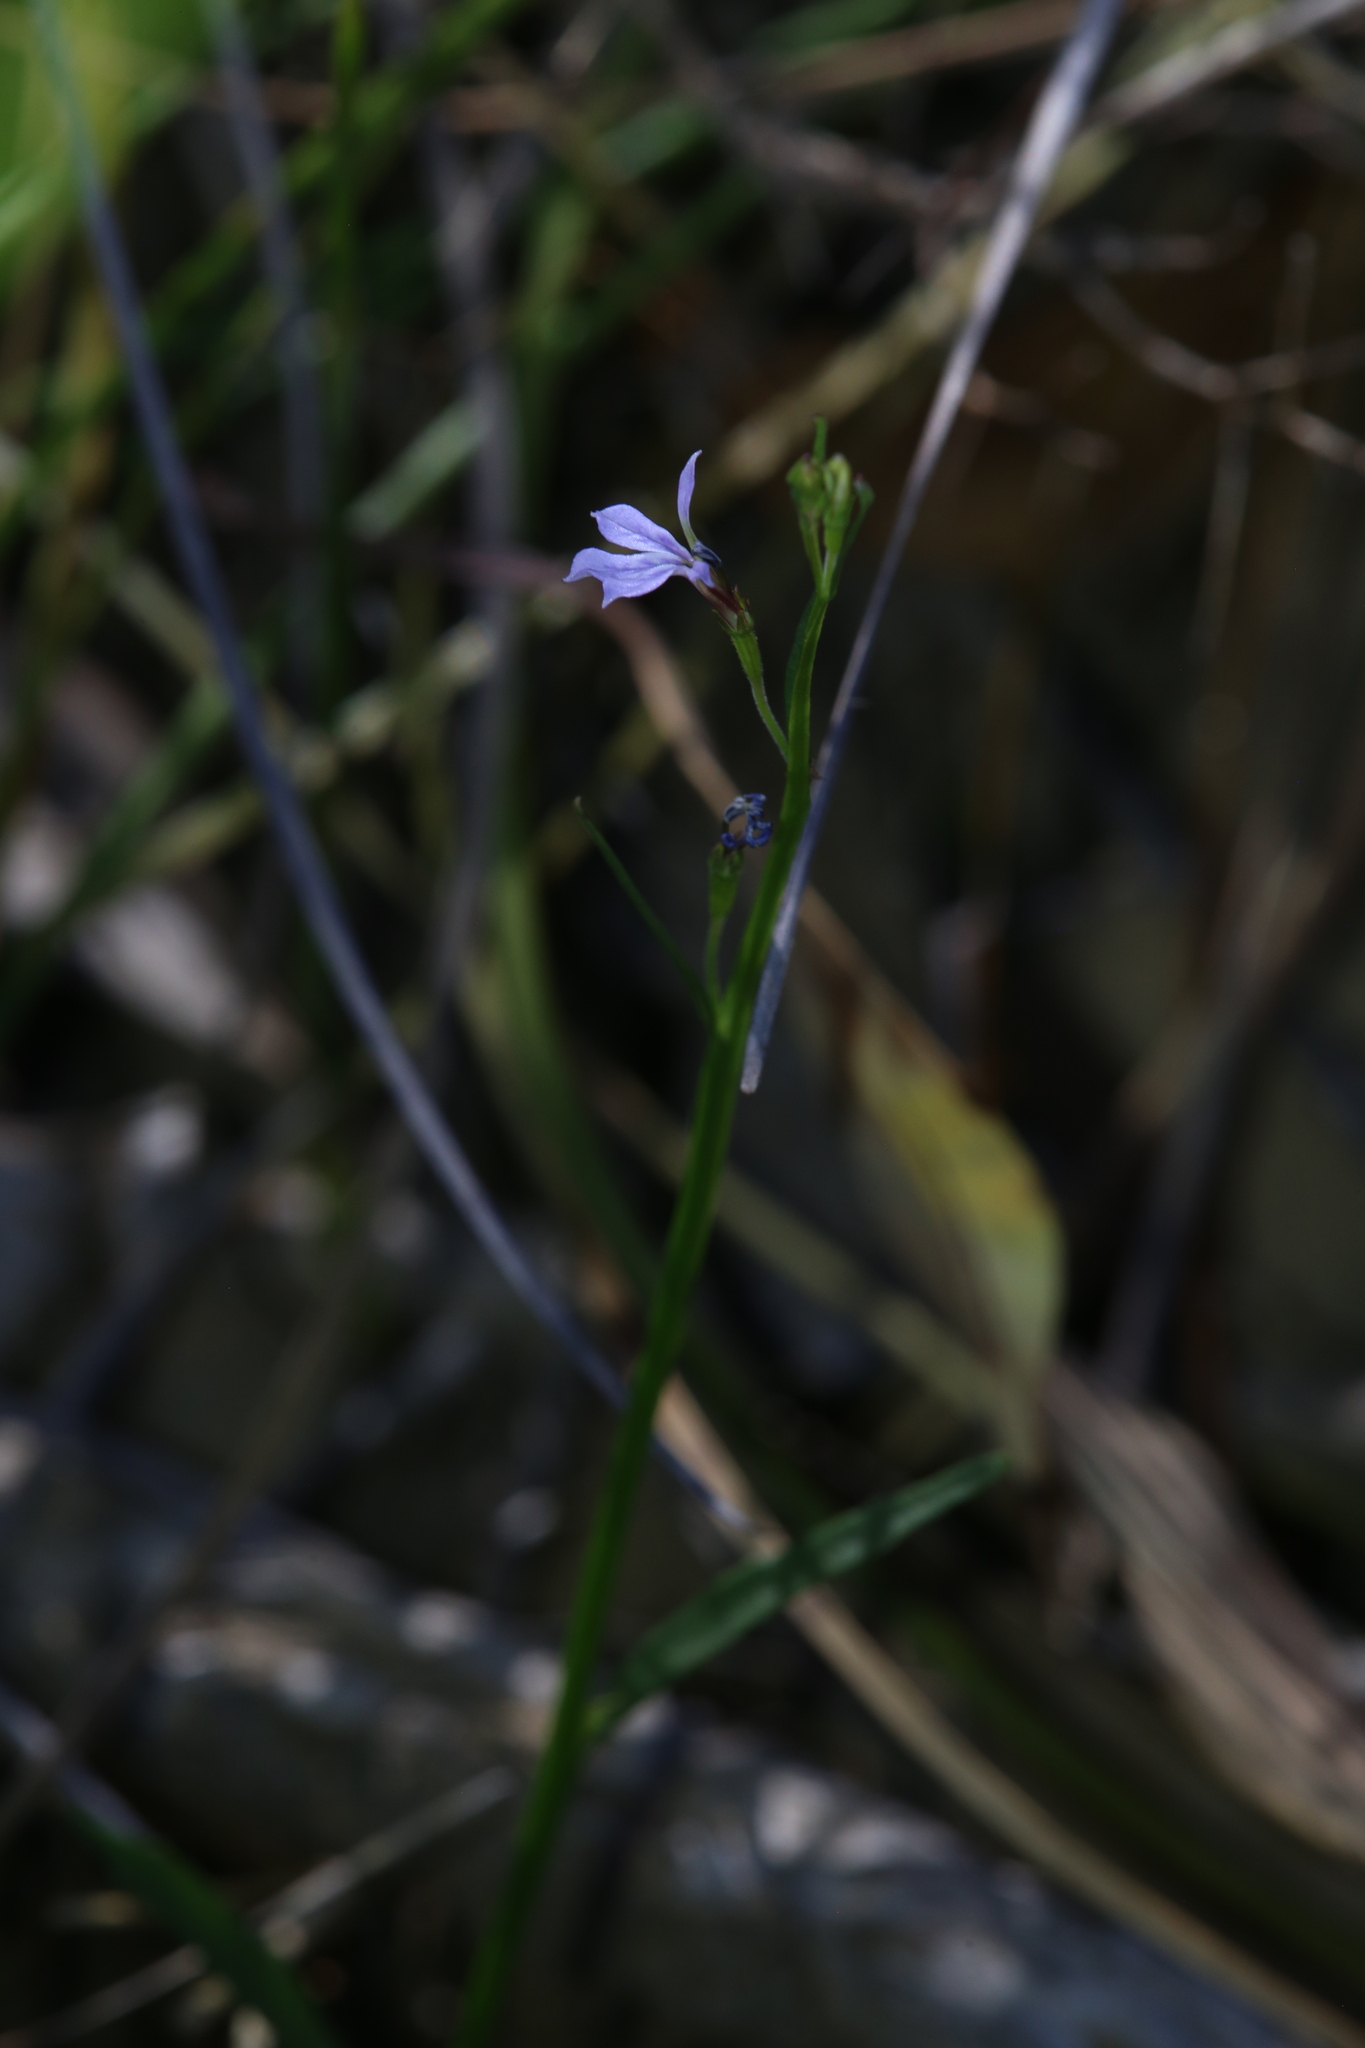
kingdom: Plantae
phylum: Tracheophyta
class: Magnoliopsida
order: Asterales
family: Campanulaceae
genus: Lobelia
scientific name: Lobelia anceps
